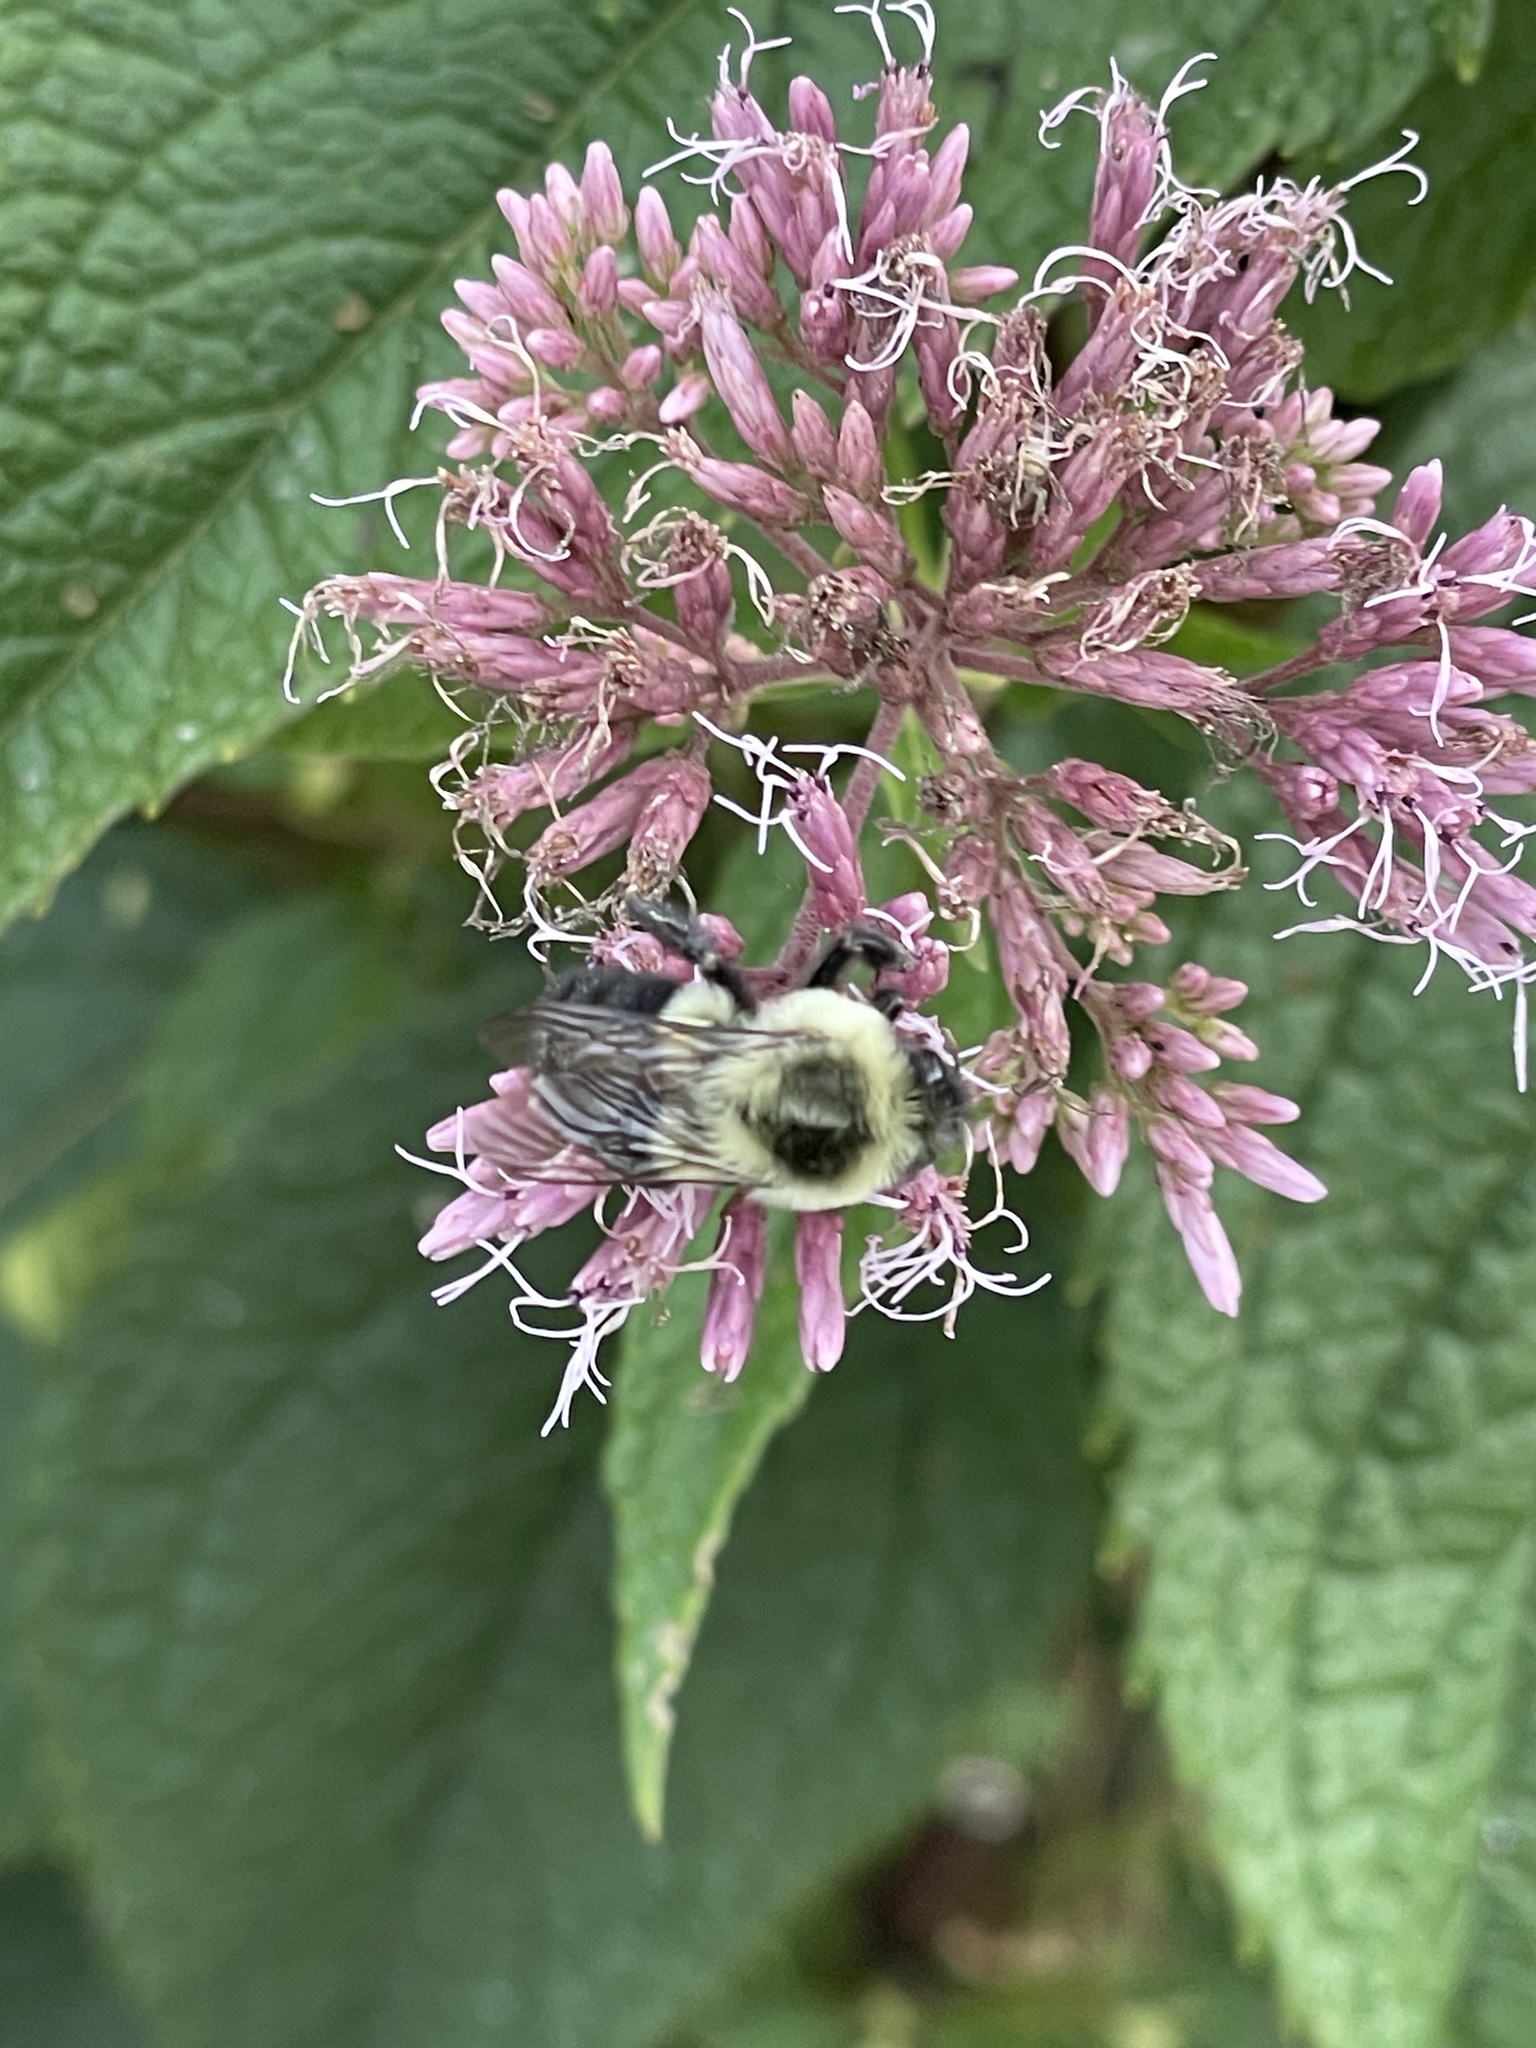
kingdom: Animalia
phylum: Arthropoda
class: Insecta
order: Hymenoptera
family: Apidae
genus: Bombus
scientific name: Bombus impatiens
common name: Common eastern bumble bee
